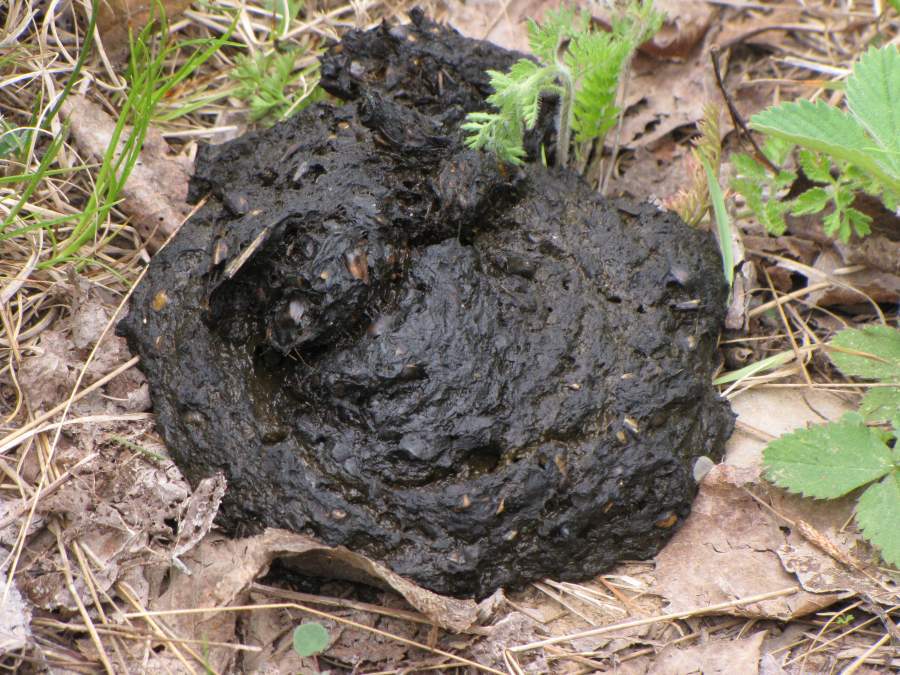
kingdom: Animalia
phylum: Chordata
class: Mammalia
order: Carnivora
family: Ursidae
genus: Ursus
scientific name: Ursus americanus
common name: American black bear
